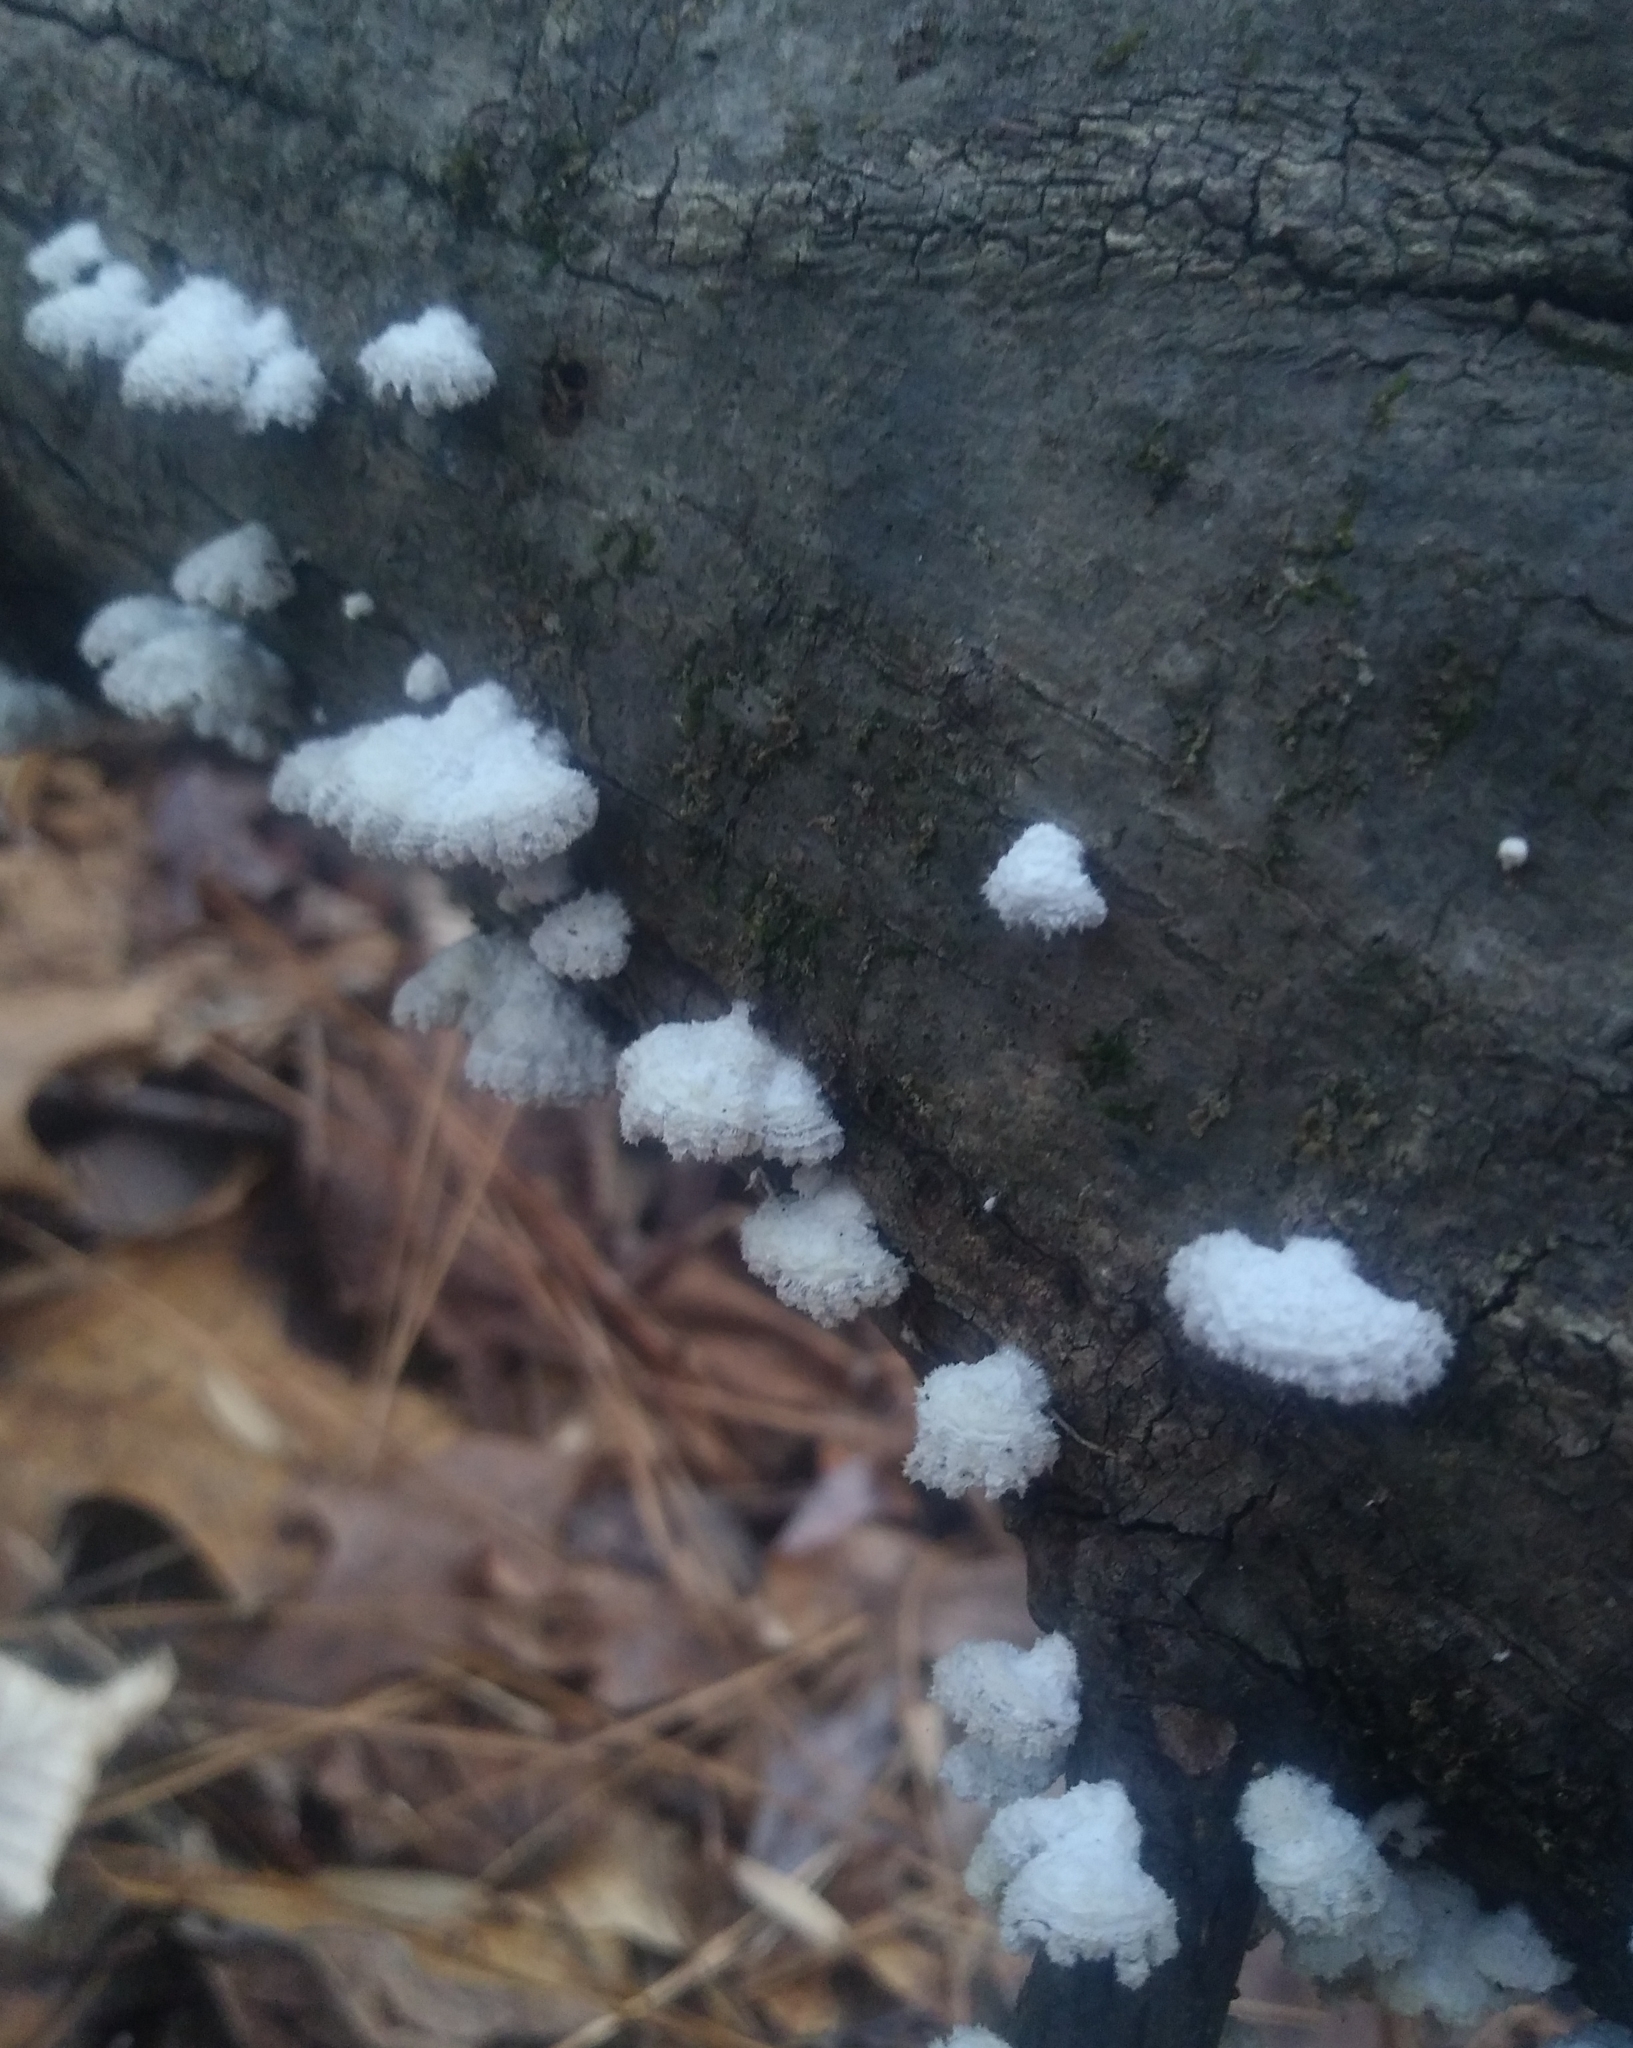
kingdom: Fungi
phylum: Basidiomycota
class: Agaricomycetes
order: Agaricales
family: Schizophyllaceae
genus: Schizophyllum
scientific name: Schizophyllum commune
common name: Common porecrust
